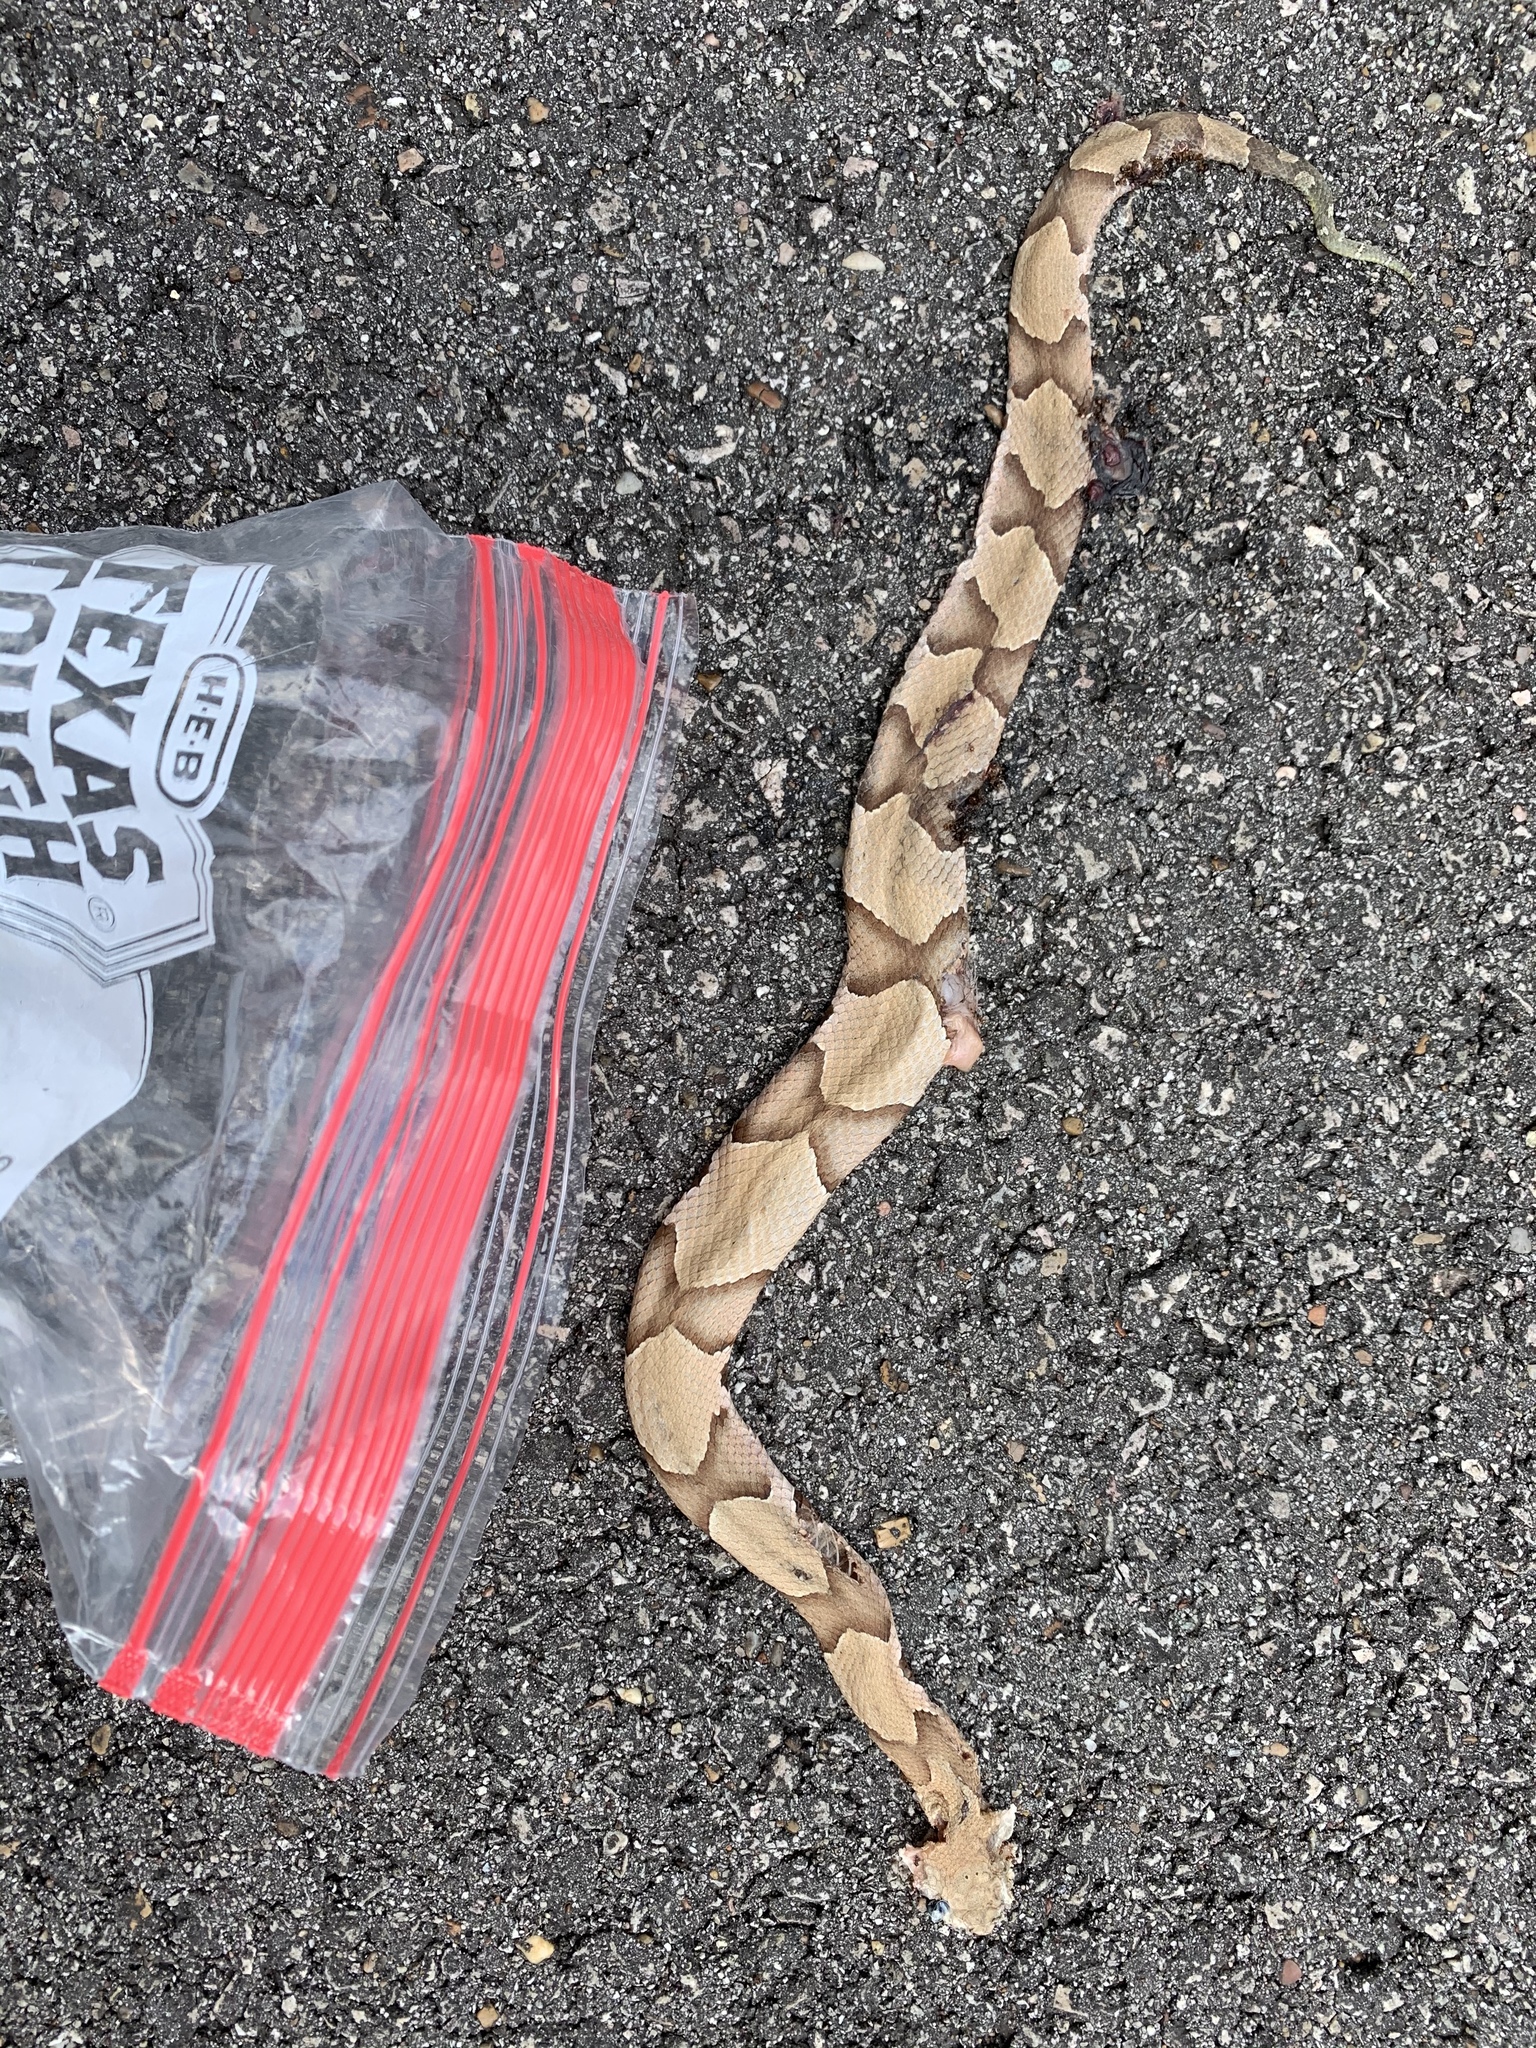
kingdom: Animalia
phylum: Chordata
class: Squamata
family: Viperidae
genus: Agkistrodon
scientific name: Agkistrodon contortrix
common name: Northern copperhead
